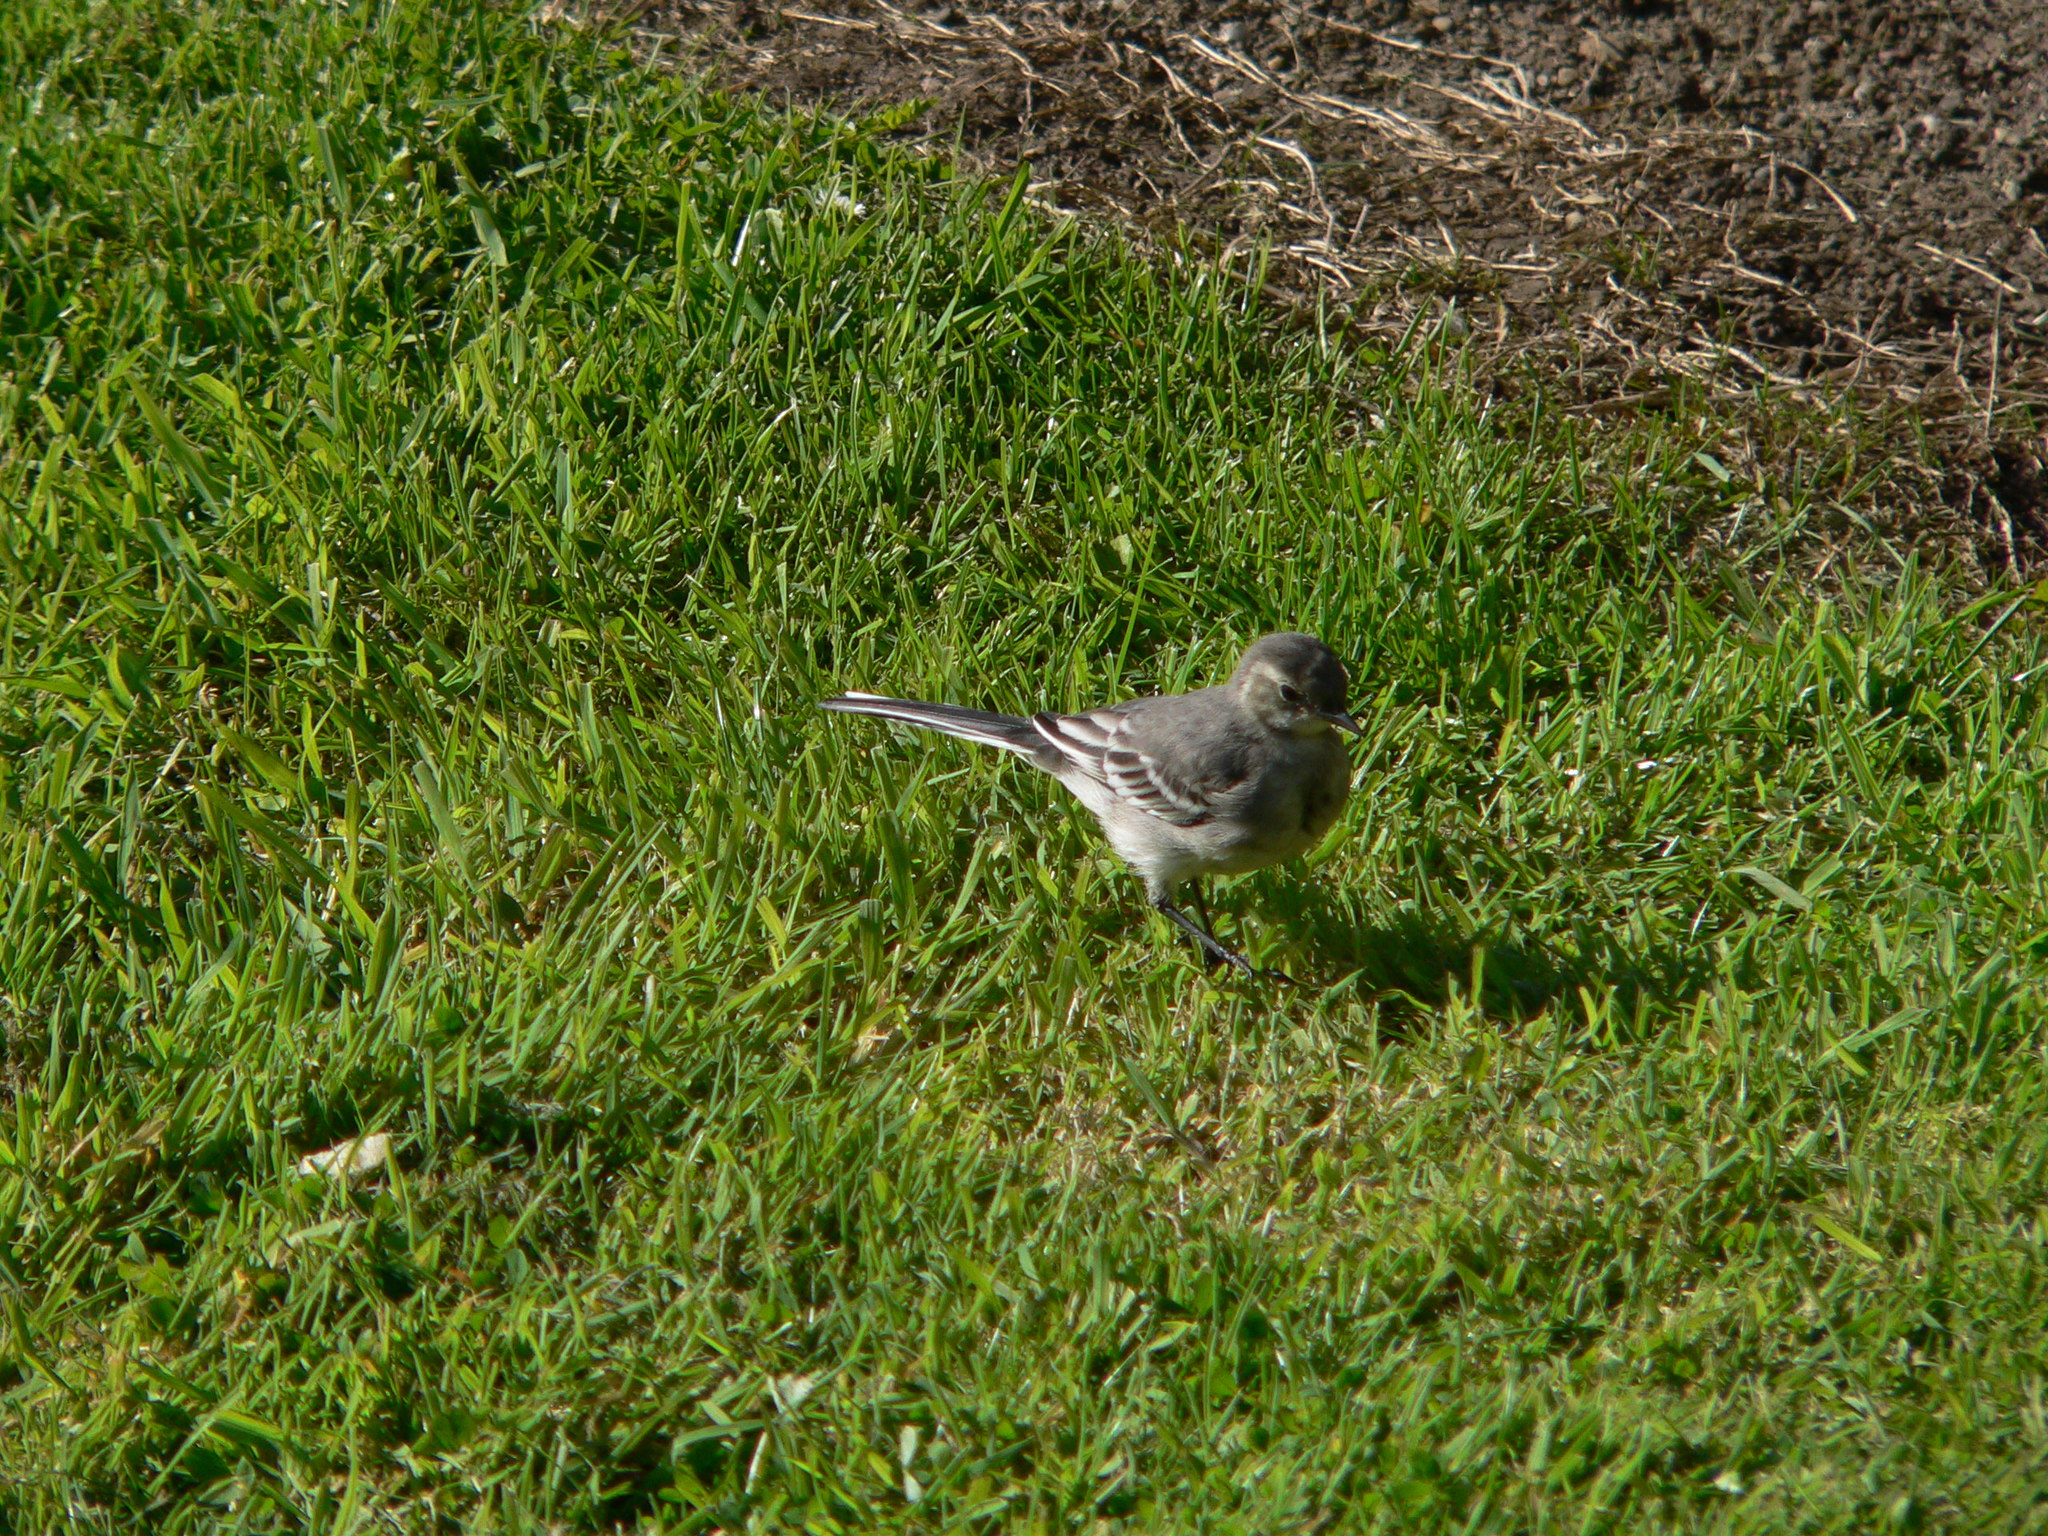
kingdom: Animalia
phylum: Chordata
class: Aves
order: Passeriformes
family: Motacillidae
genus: Motacilla
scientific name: Motacilla alba
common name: White wagtail
